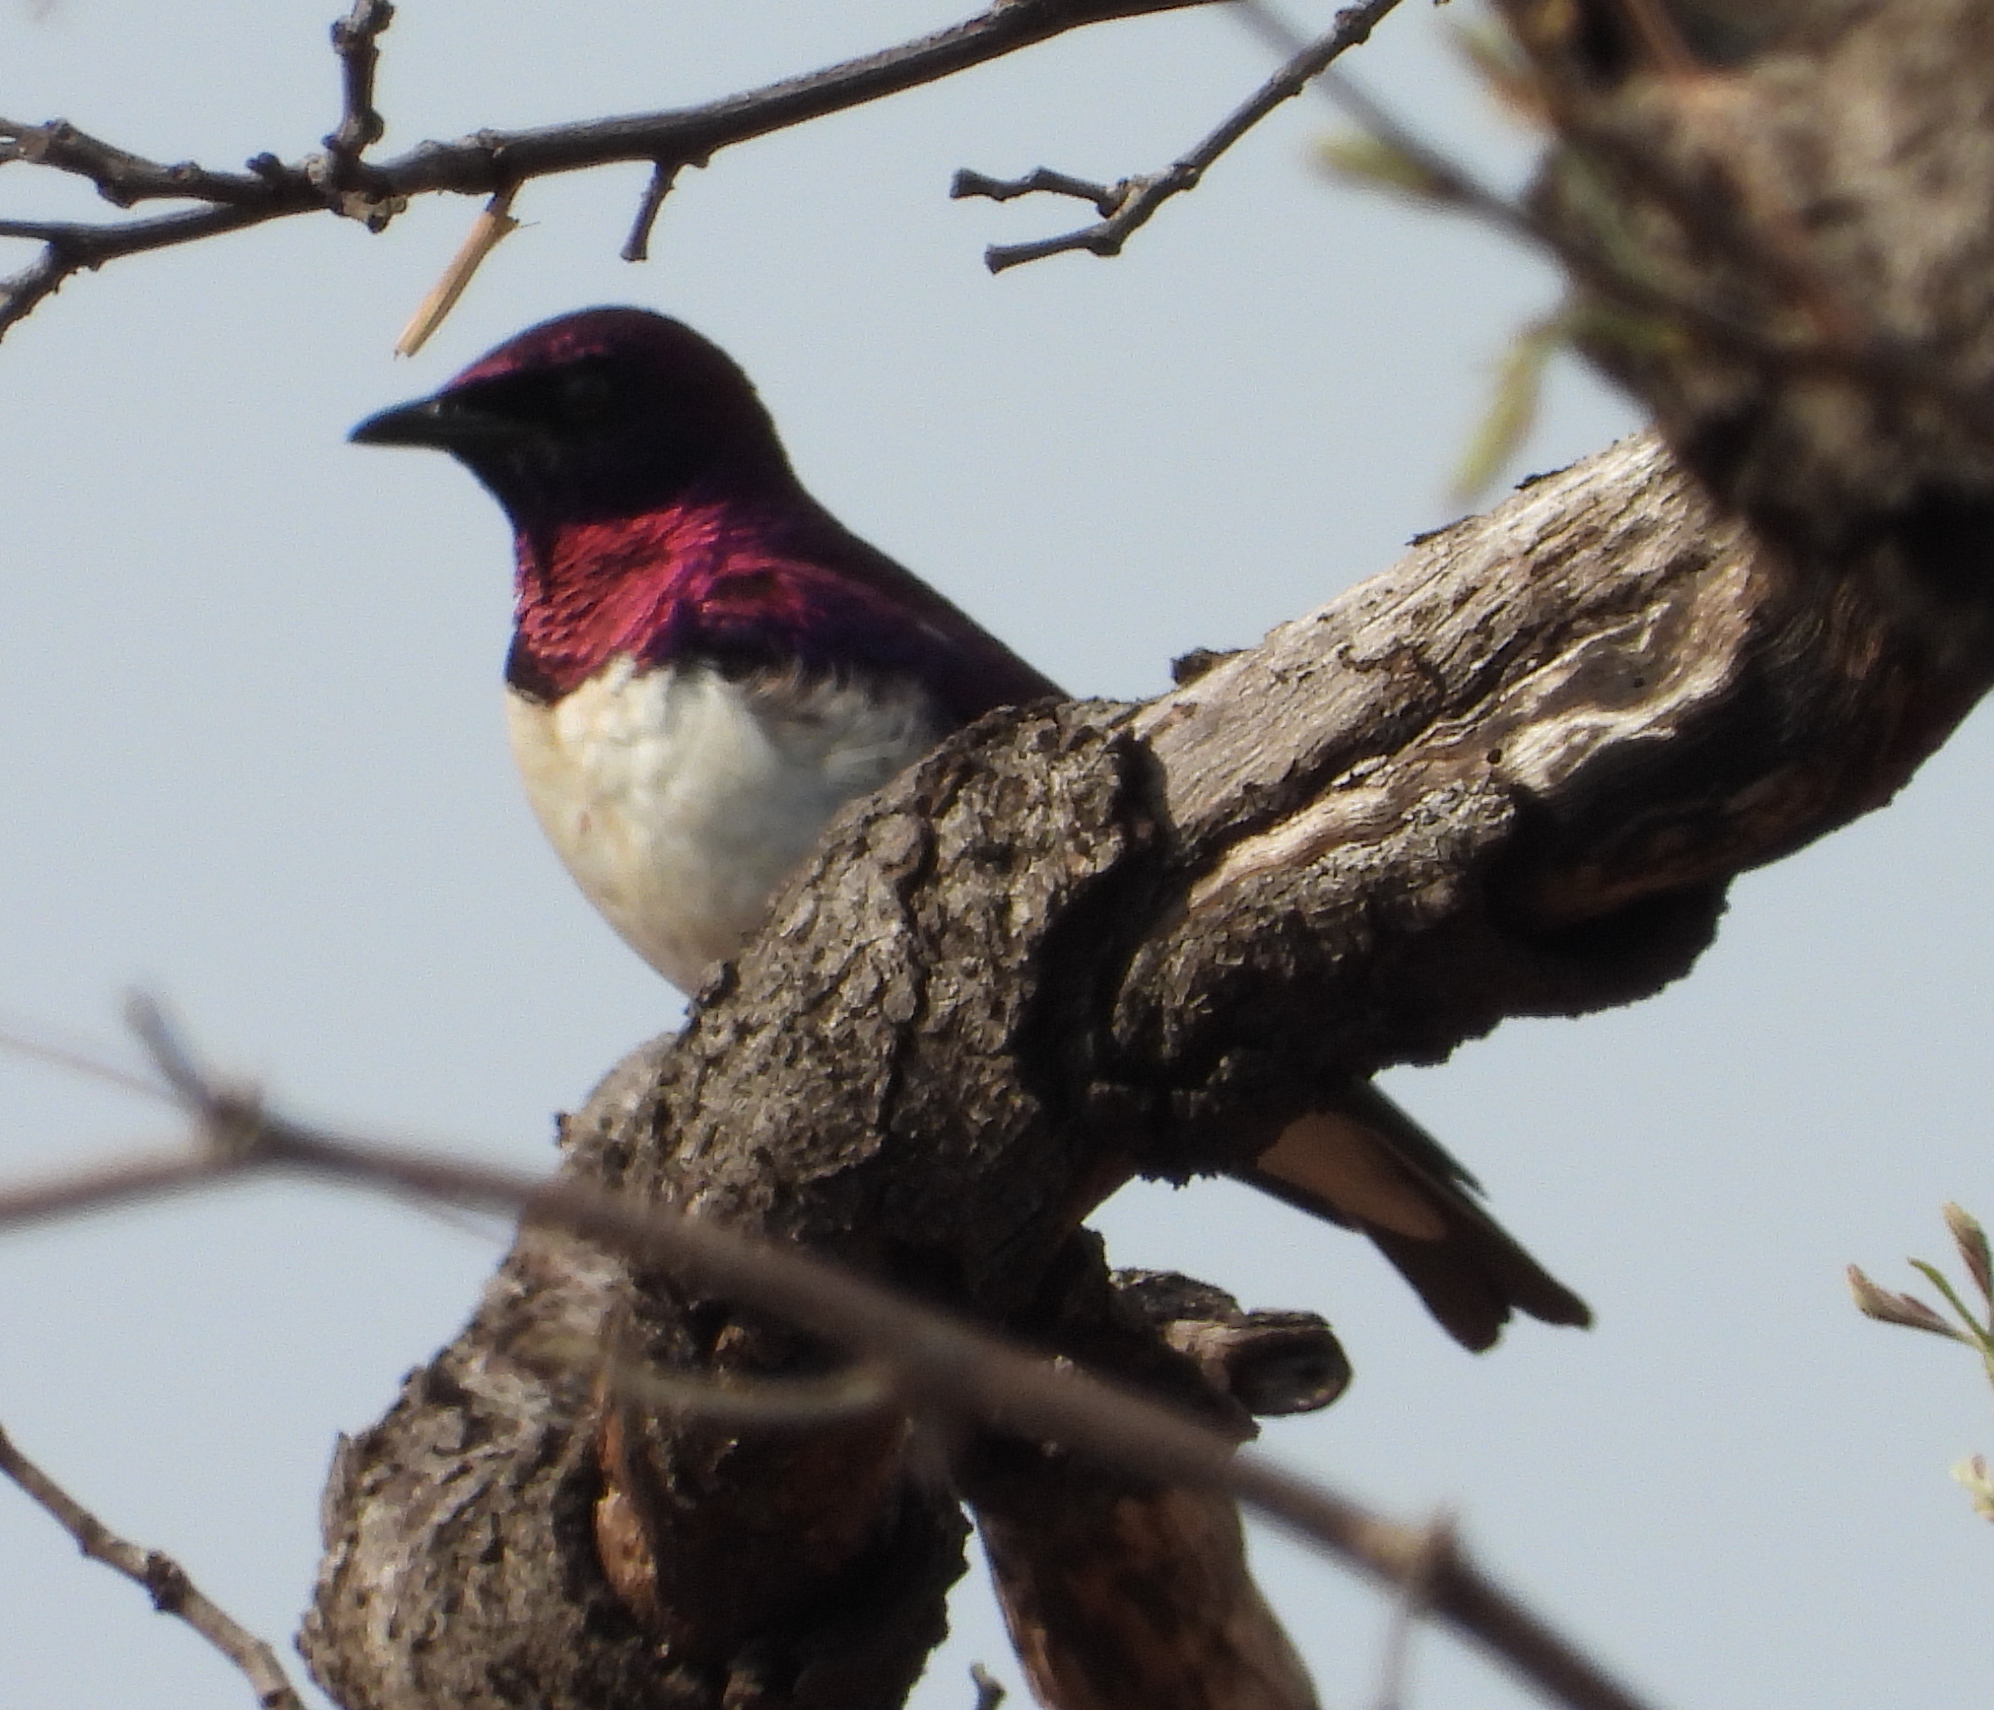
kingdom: Animalia
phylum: Chordata
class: Aves
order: Passeriformes
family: Sturnidae
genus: Cinnyricinclus
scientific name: Cinnyricinclus leucogaster
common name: Violet-backed starling
